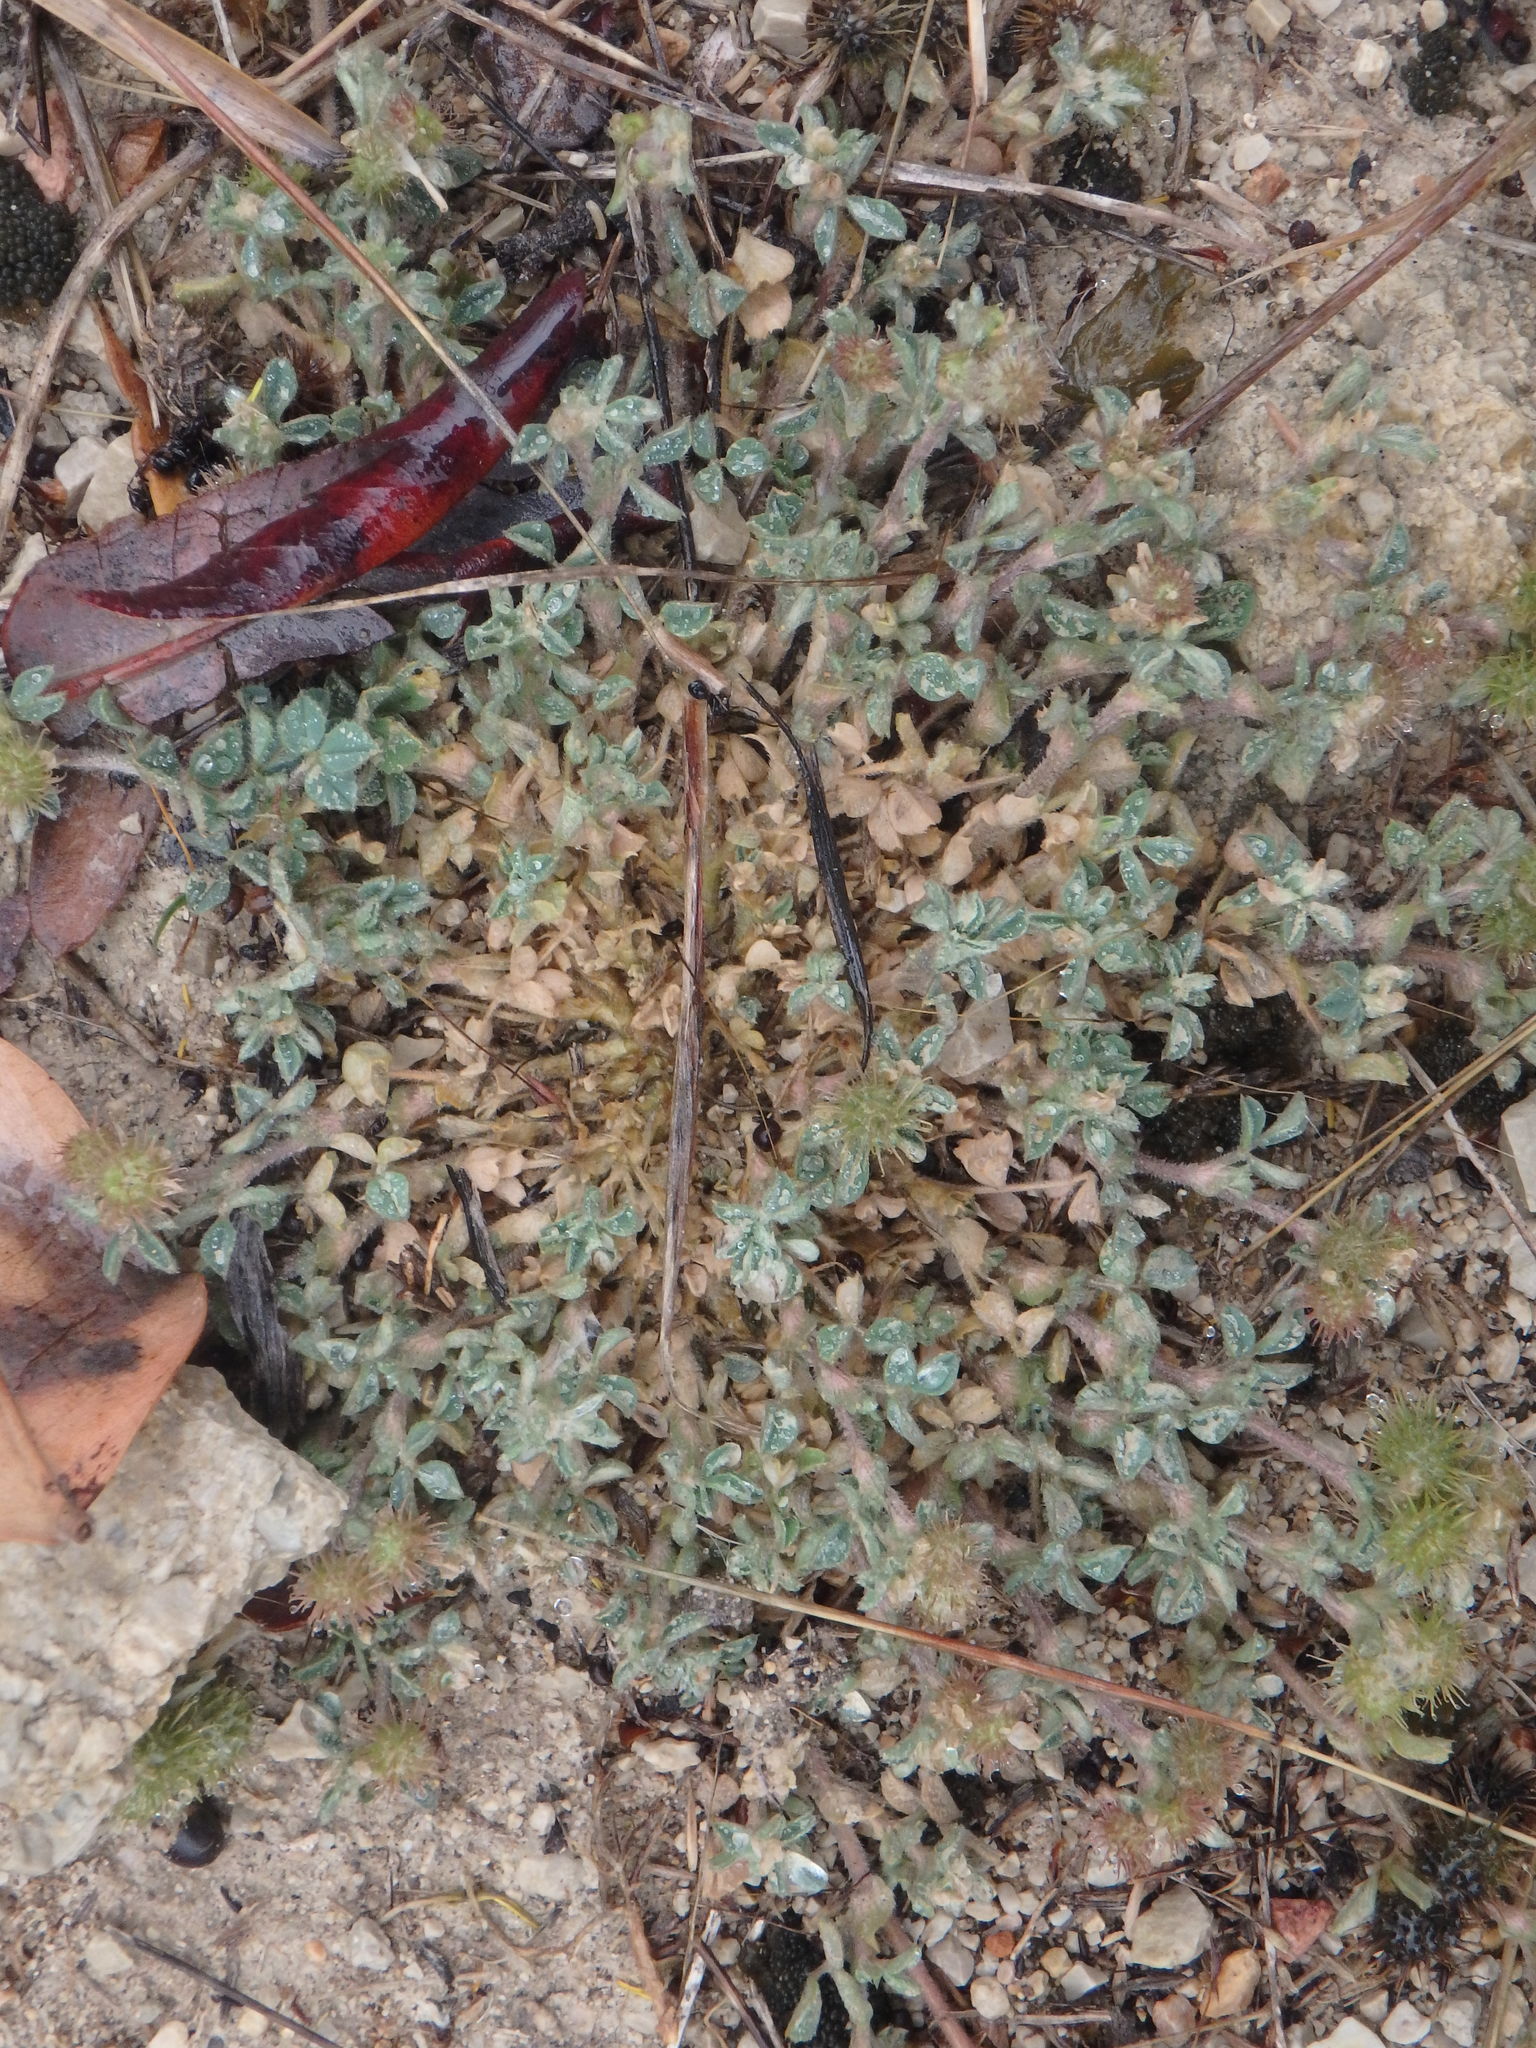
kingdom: Plantae
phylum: Tracheophyta
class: Magnoliopsida
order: Fabales
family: Fabaceae
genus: Medicago
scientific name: Medicago minima
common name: Little bur-clover
